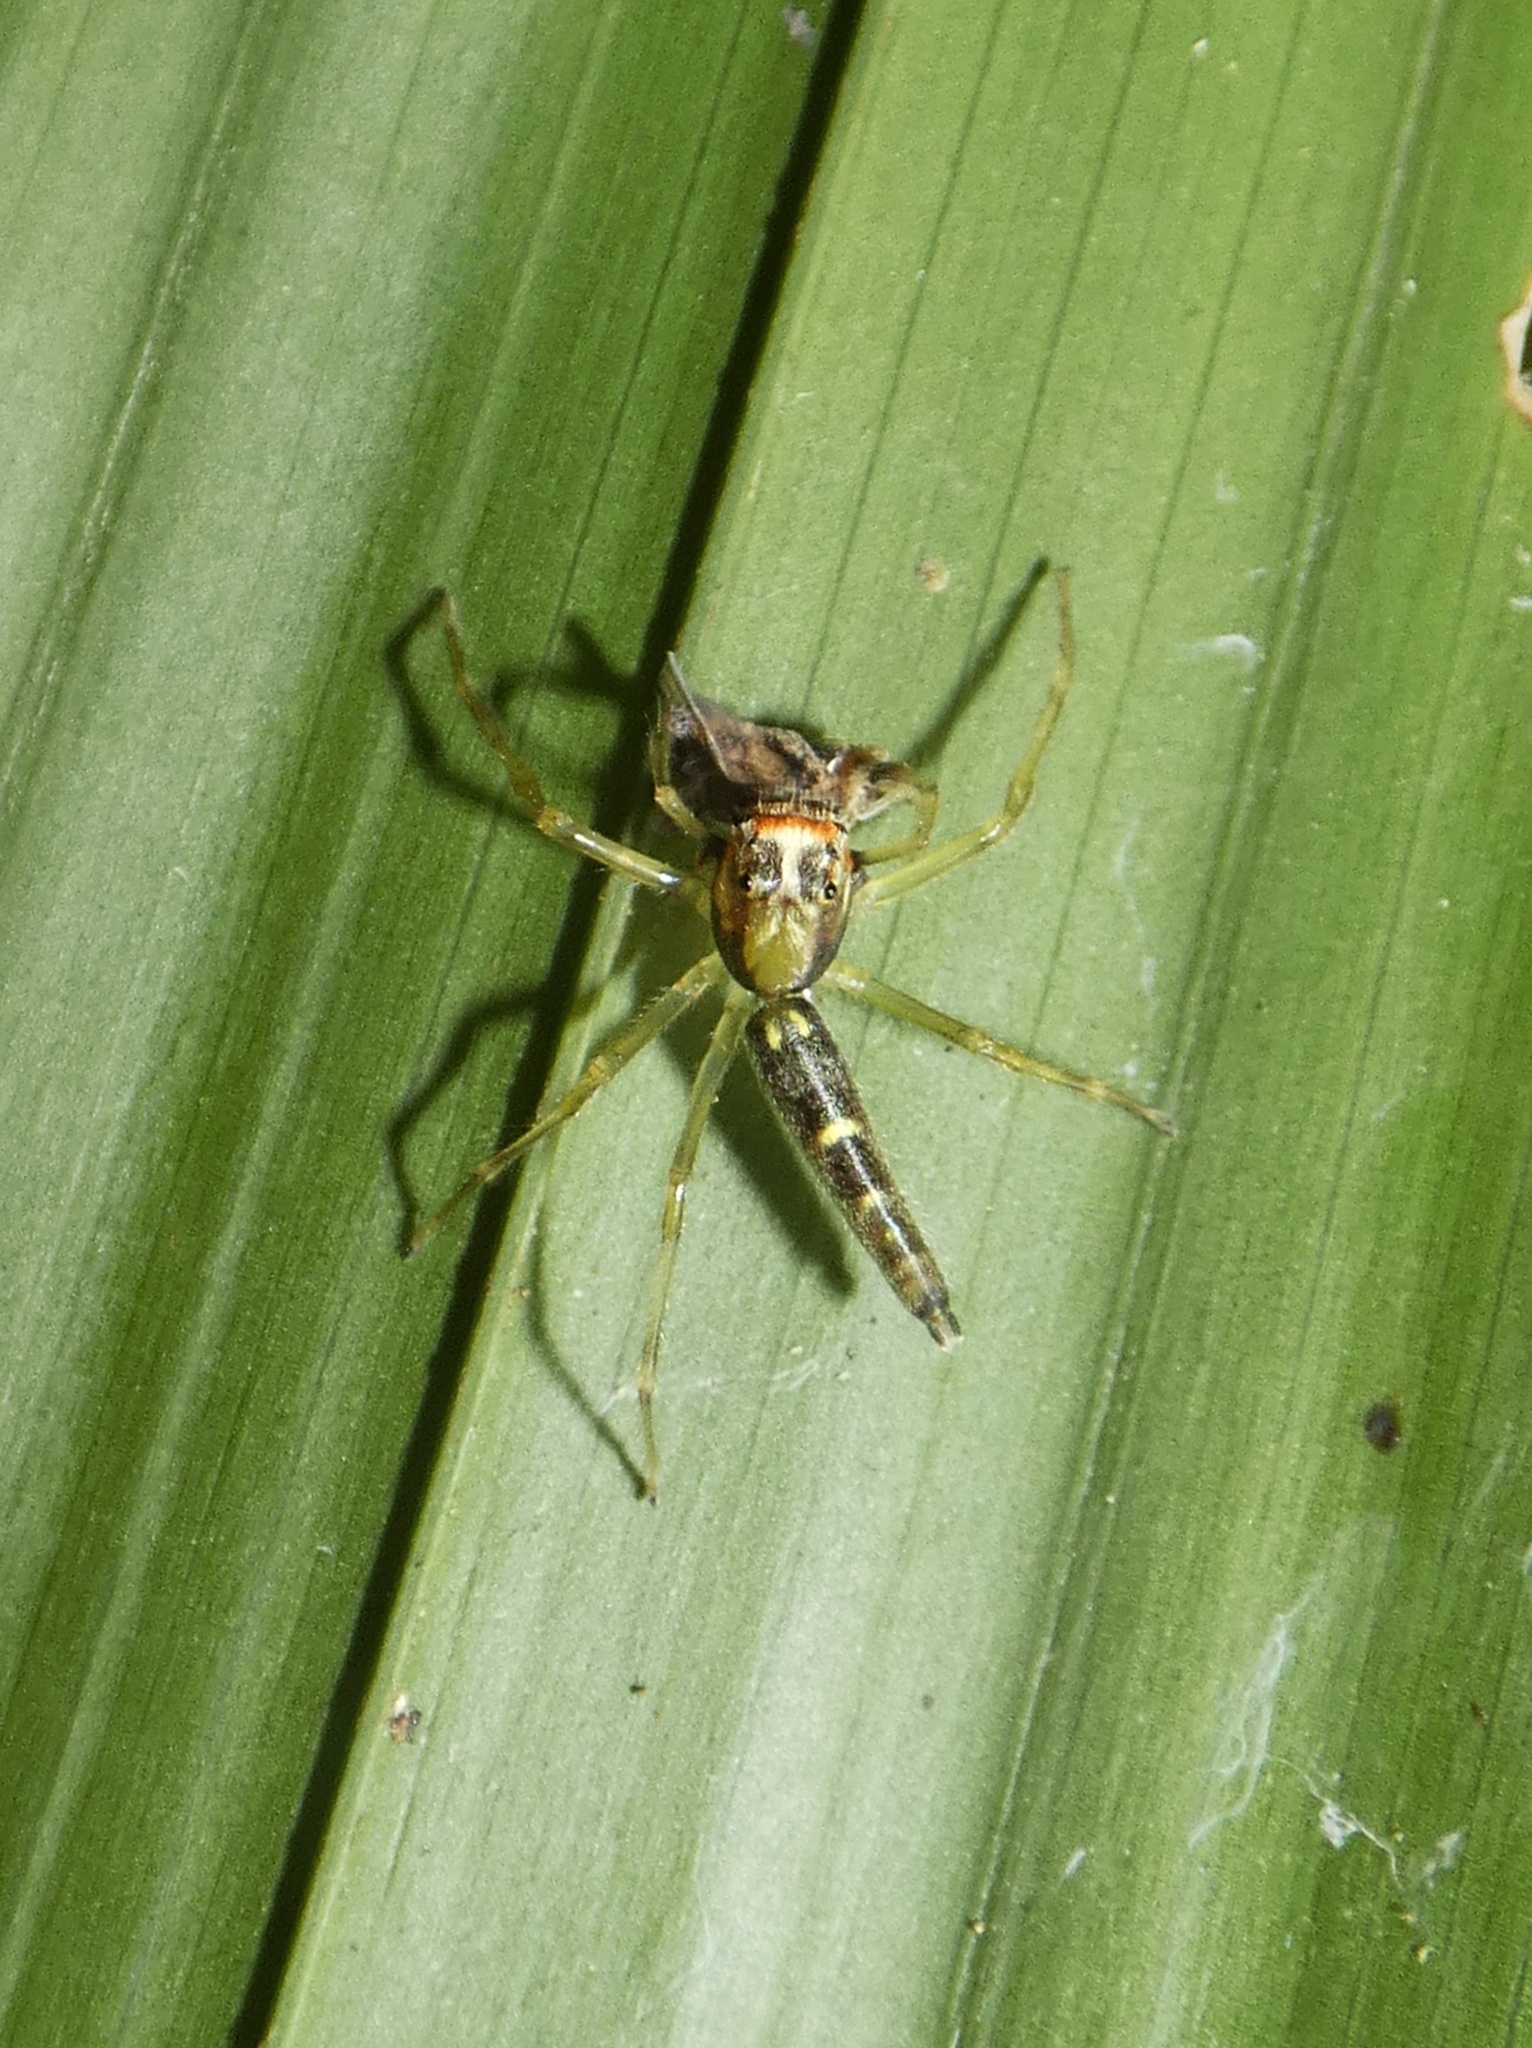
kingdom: Animalia
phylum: Arthropoda
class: Arachnida
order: Araneae
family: Salticidae
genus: Itata
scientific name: Itata
